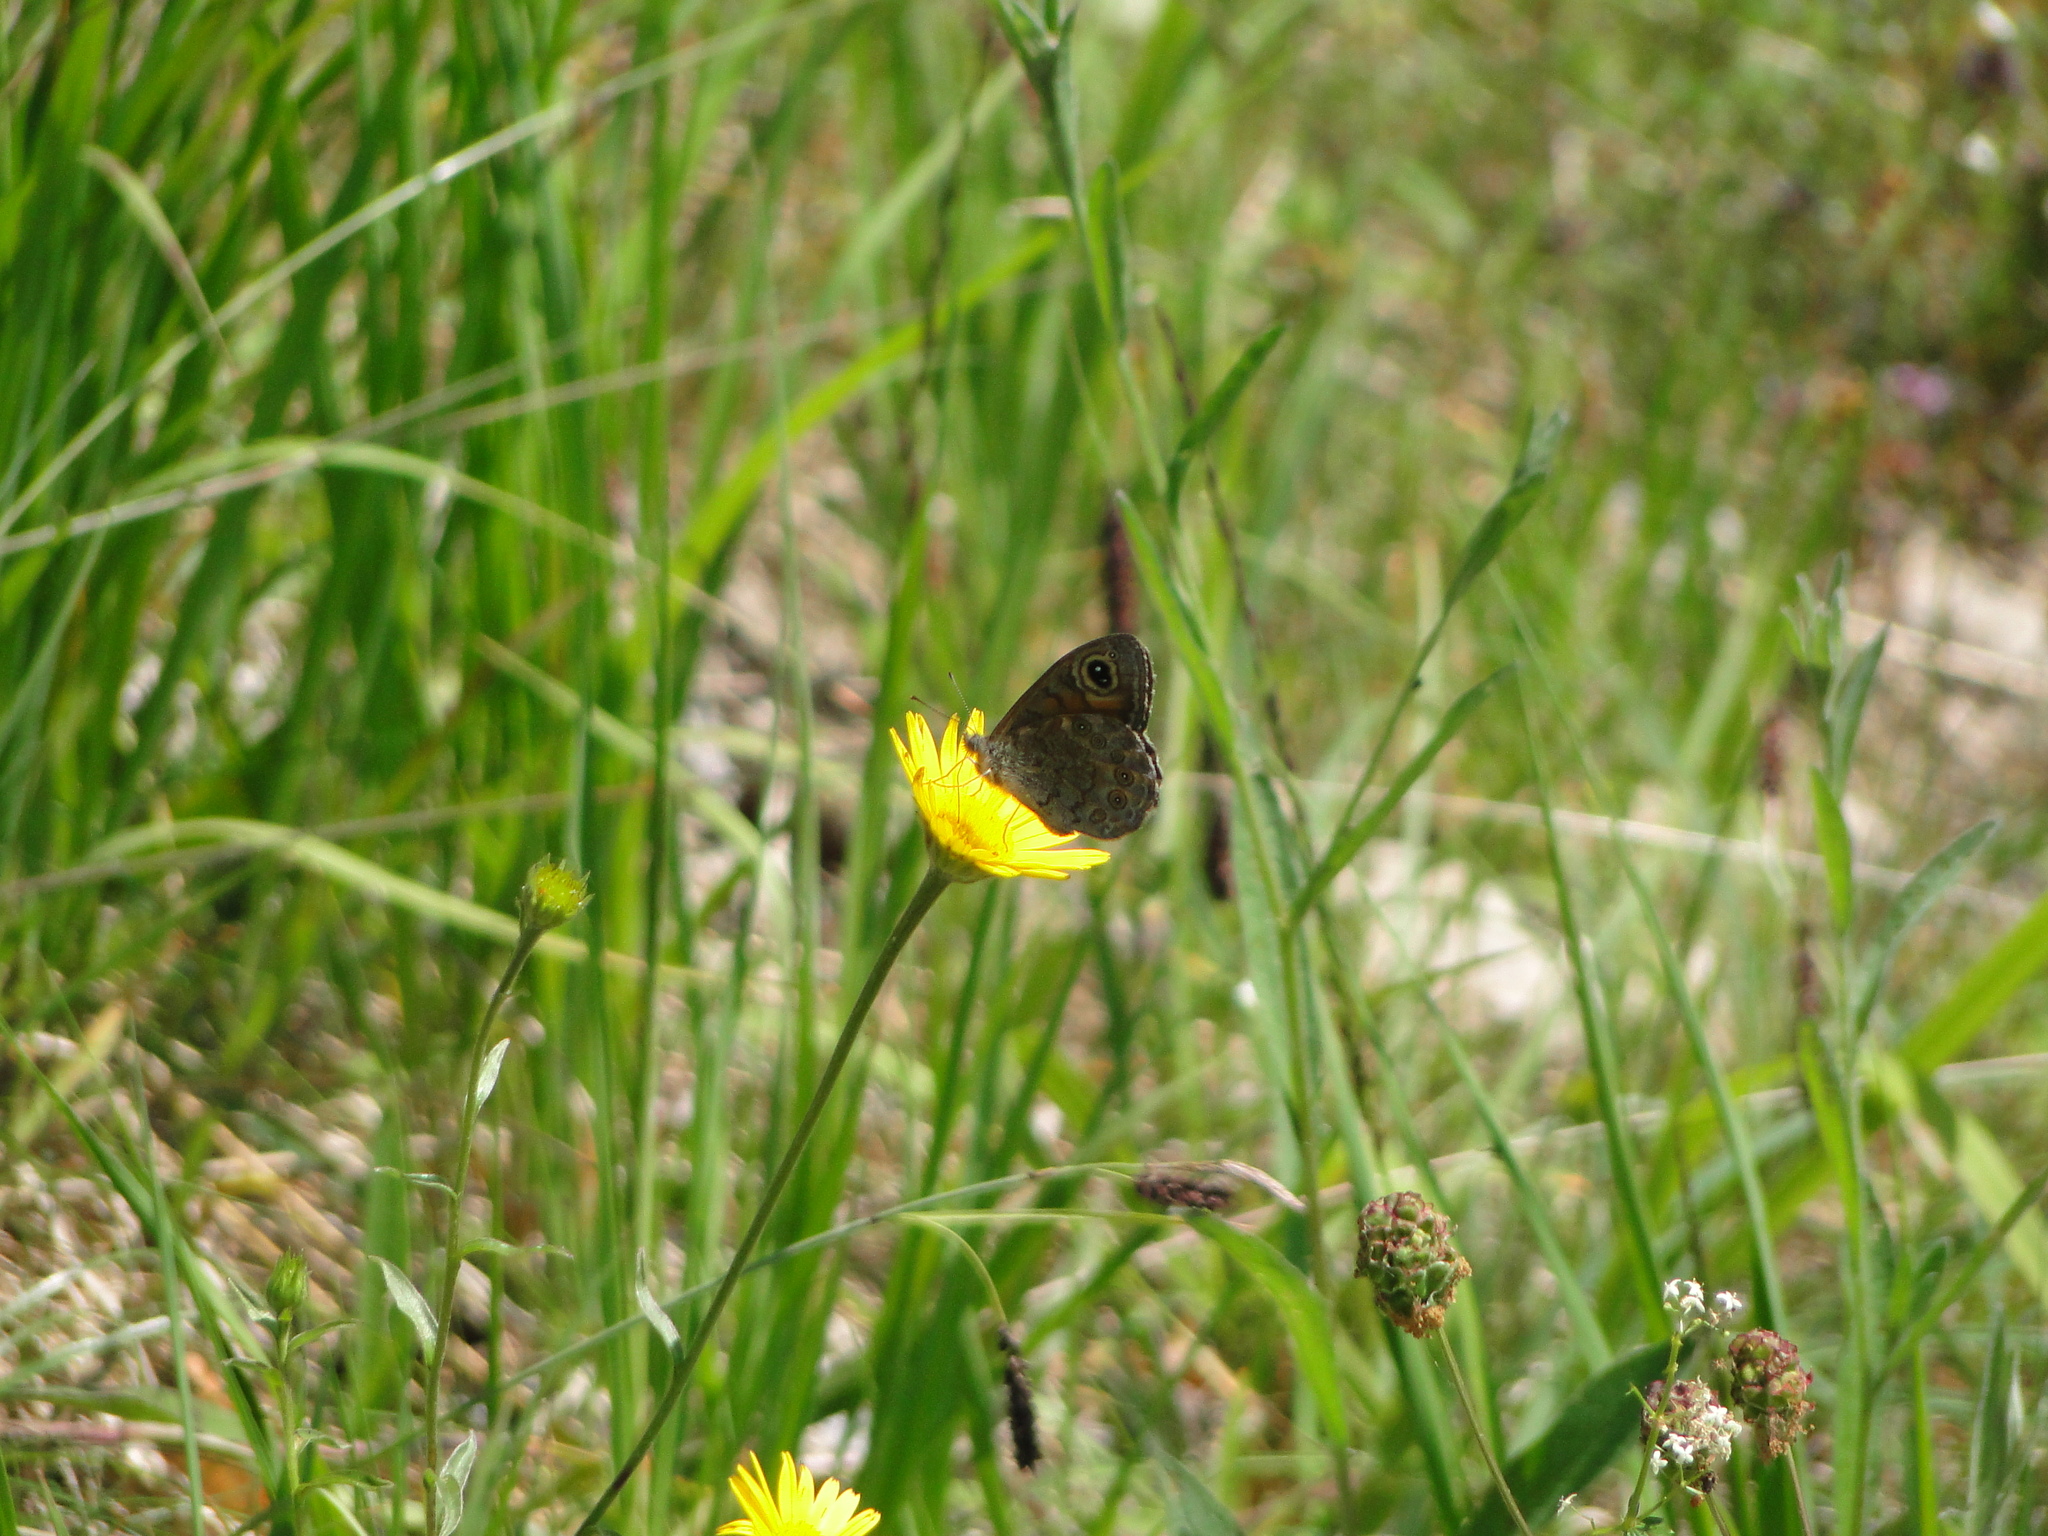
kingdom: Animalia
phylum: Arthropoda
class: Insecta
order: Lepidoptera
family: Nymphalidae
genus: Pararge
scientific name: Pararge Lasiommata maera
